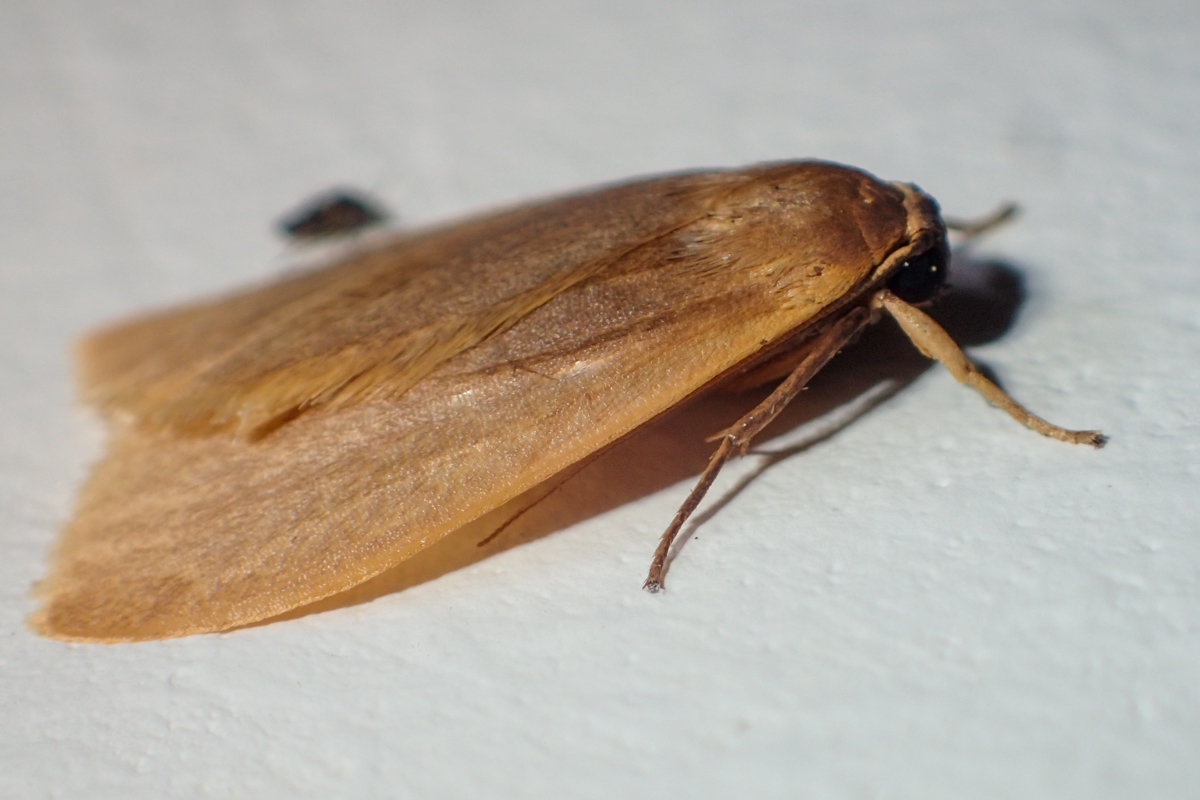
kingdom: Animalia
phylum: Arthropoda
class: Insecta
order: Lepidoptera
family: Erebidae
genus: Nishada
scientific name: Nishada flabrifera
